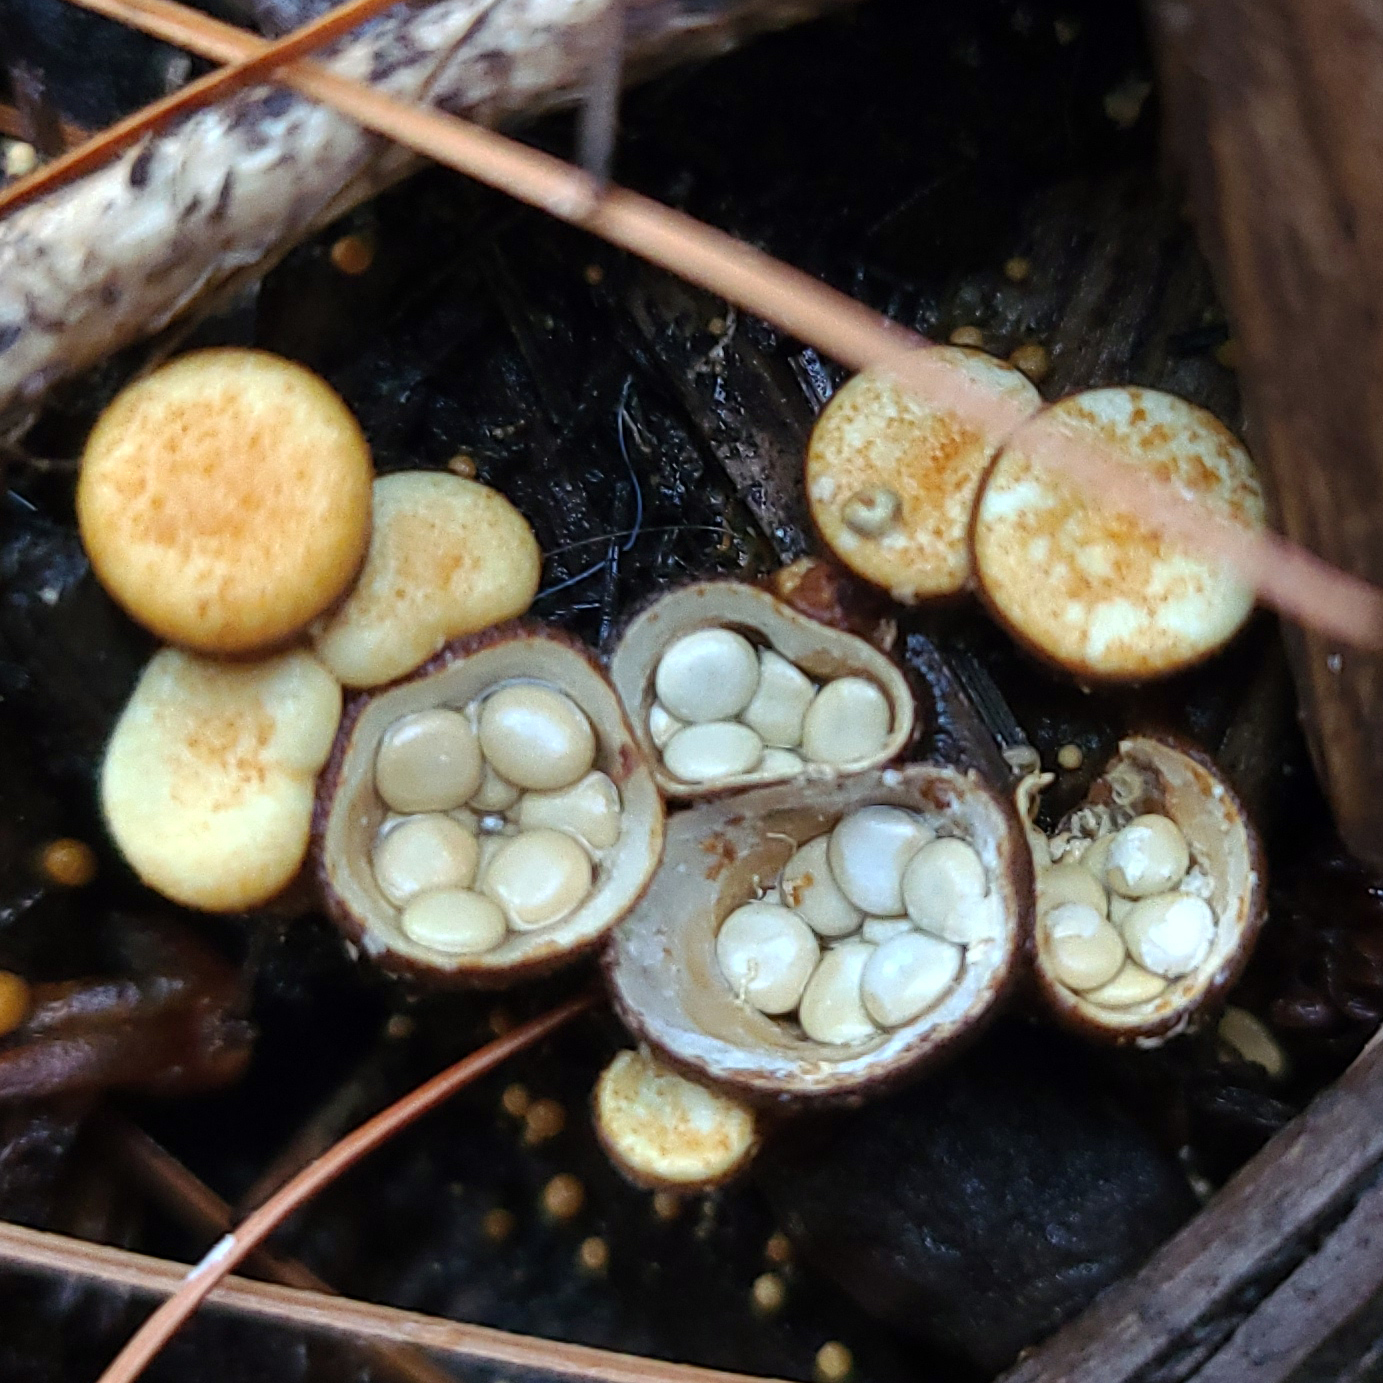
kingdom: Fungi
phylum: Basidiomycota
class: Agaricomycetes
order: Agaricales
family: Nidulariaceae
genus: Crucibulum
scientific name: Crucibulum laeve
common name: Common bird's nest
